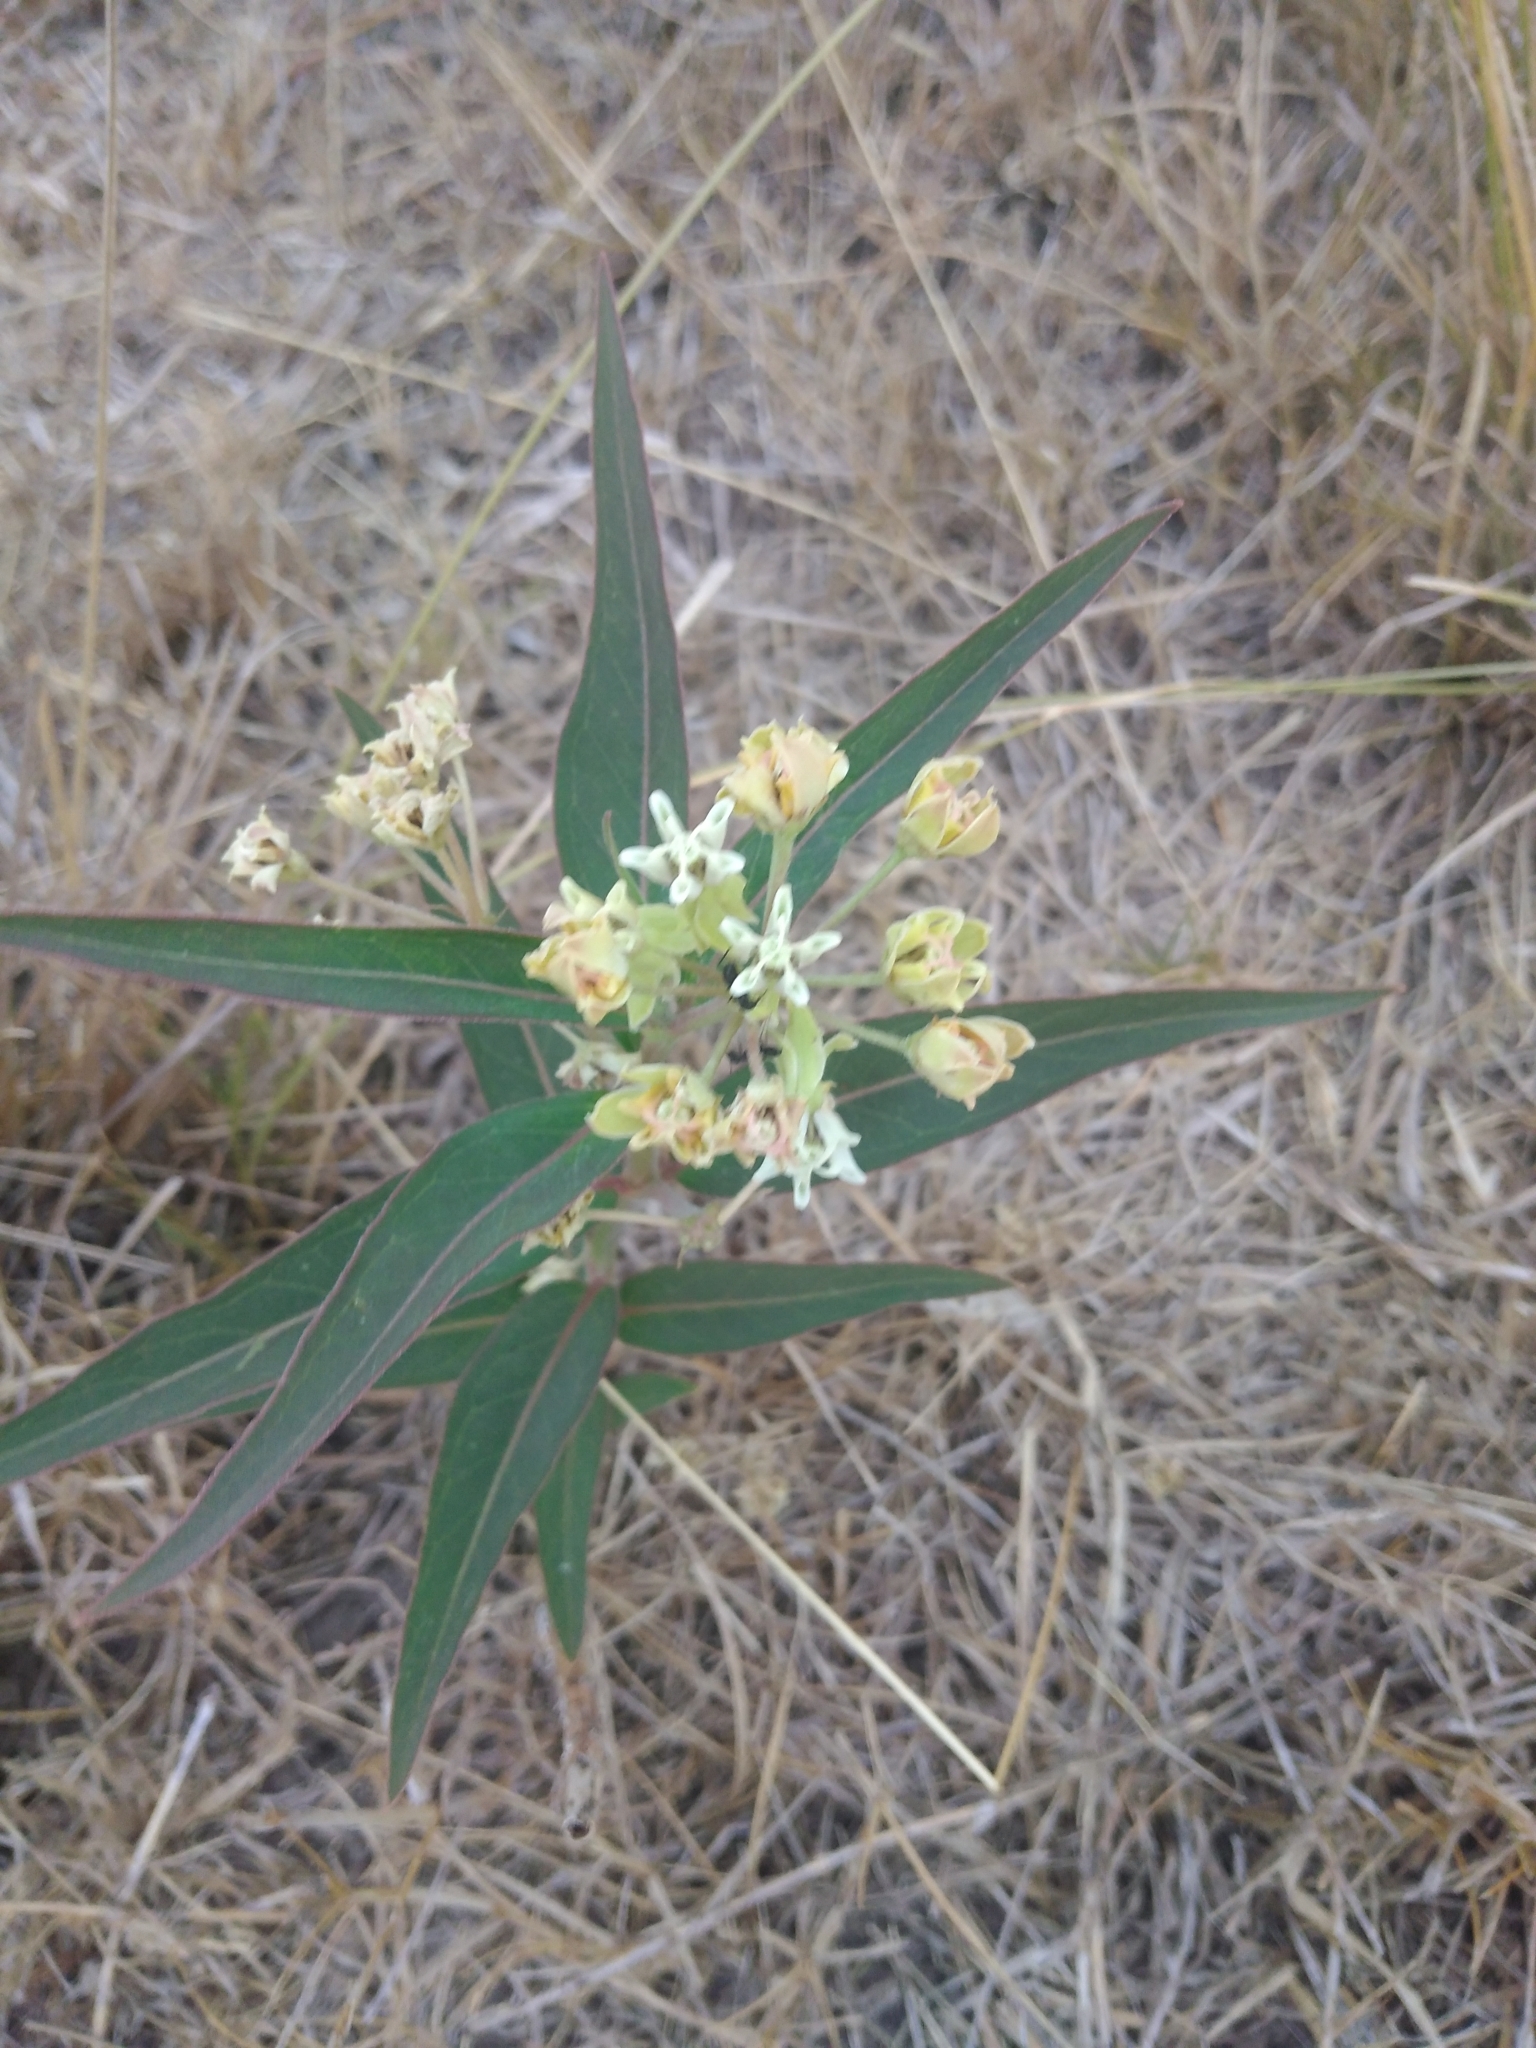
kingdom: Plantae
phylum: Tracheophyta
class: Magnoliopsida
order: Gentianales
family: Apocynaceae
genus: Asclepias
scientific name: Asclepias mellodora
